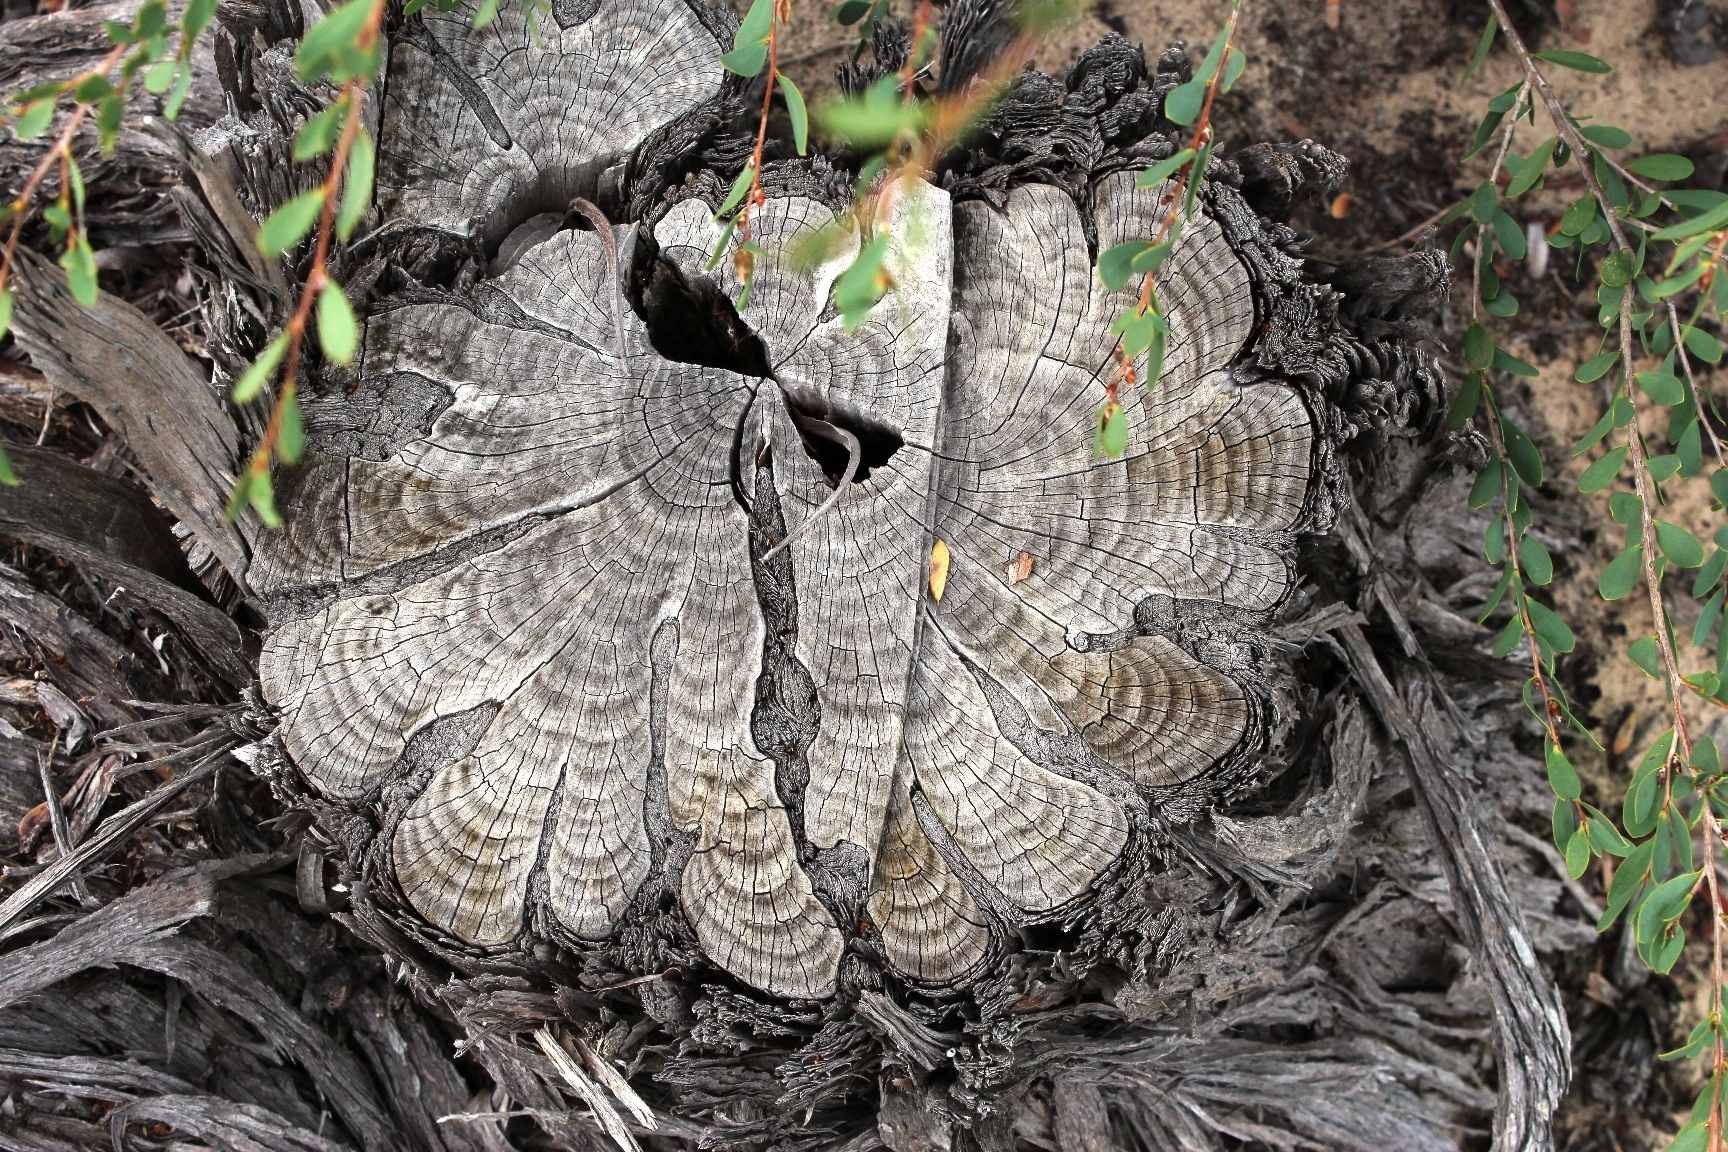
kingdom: Plantae
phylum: Tracheophyta
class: Magnoliopsida
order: Myrtales
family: Myrtaceae
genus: Leptospermum
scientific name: Leptospermum laevigatum
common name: Australian teatree
